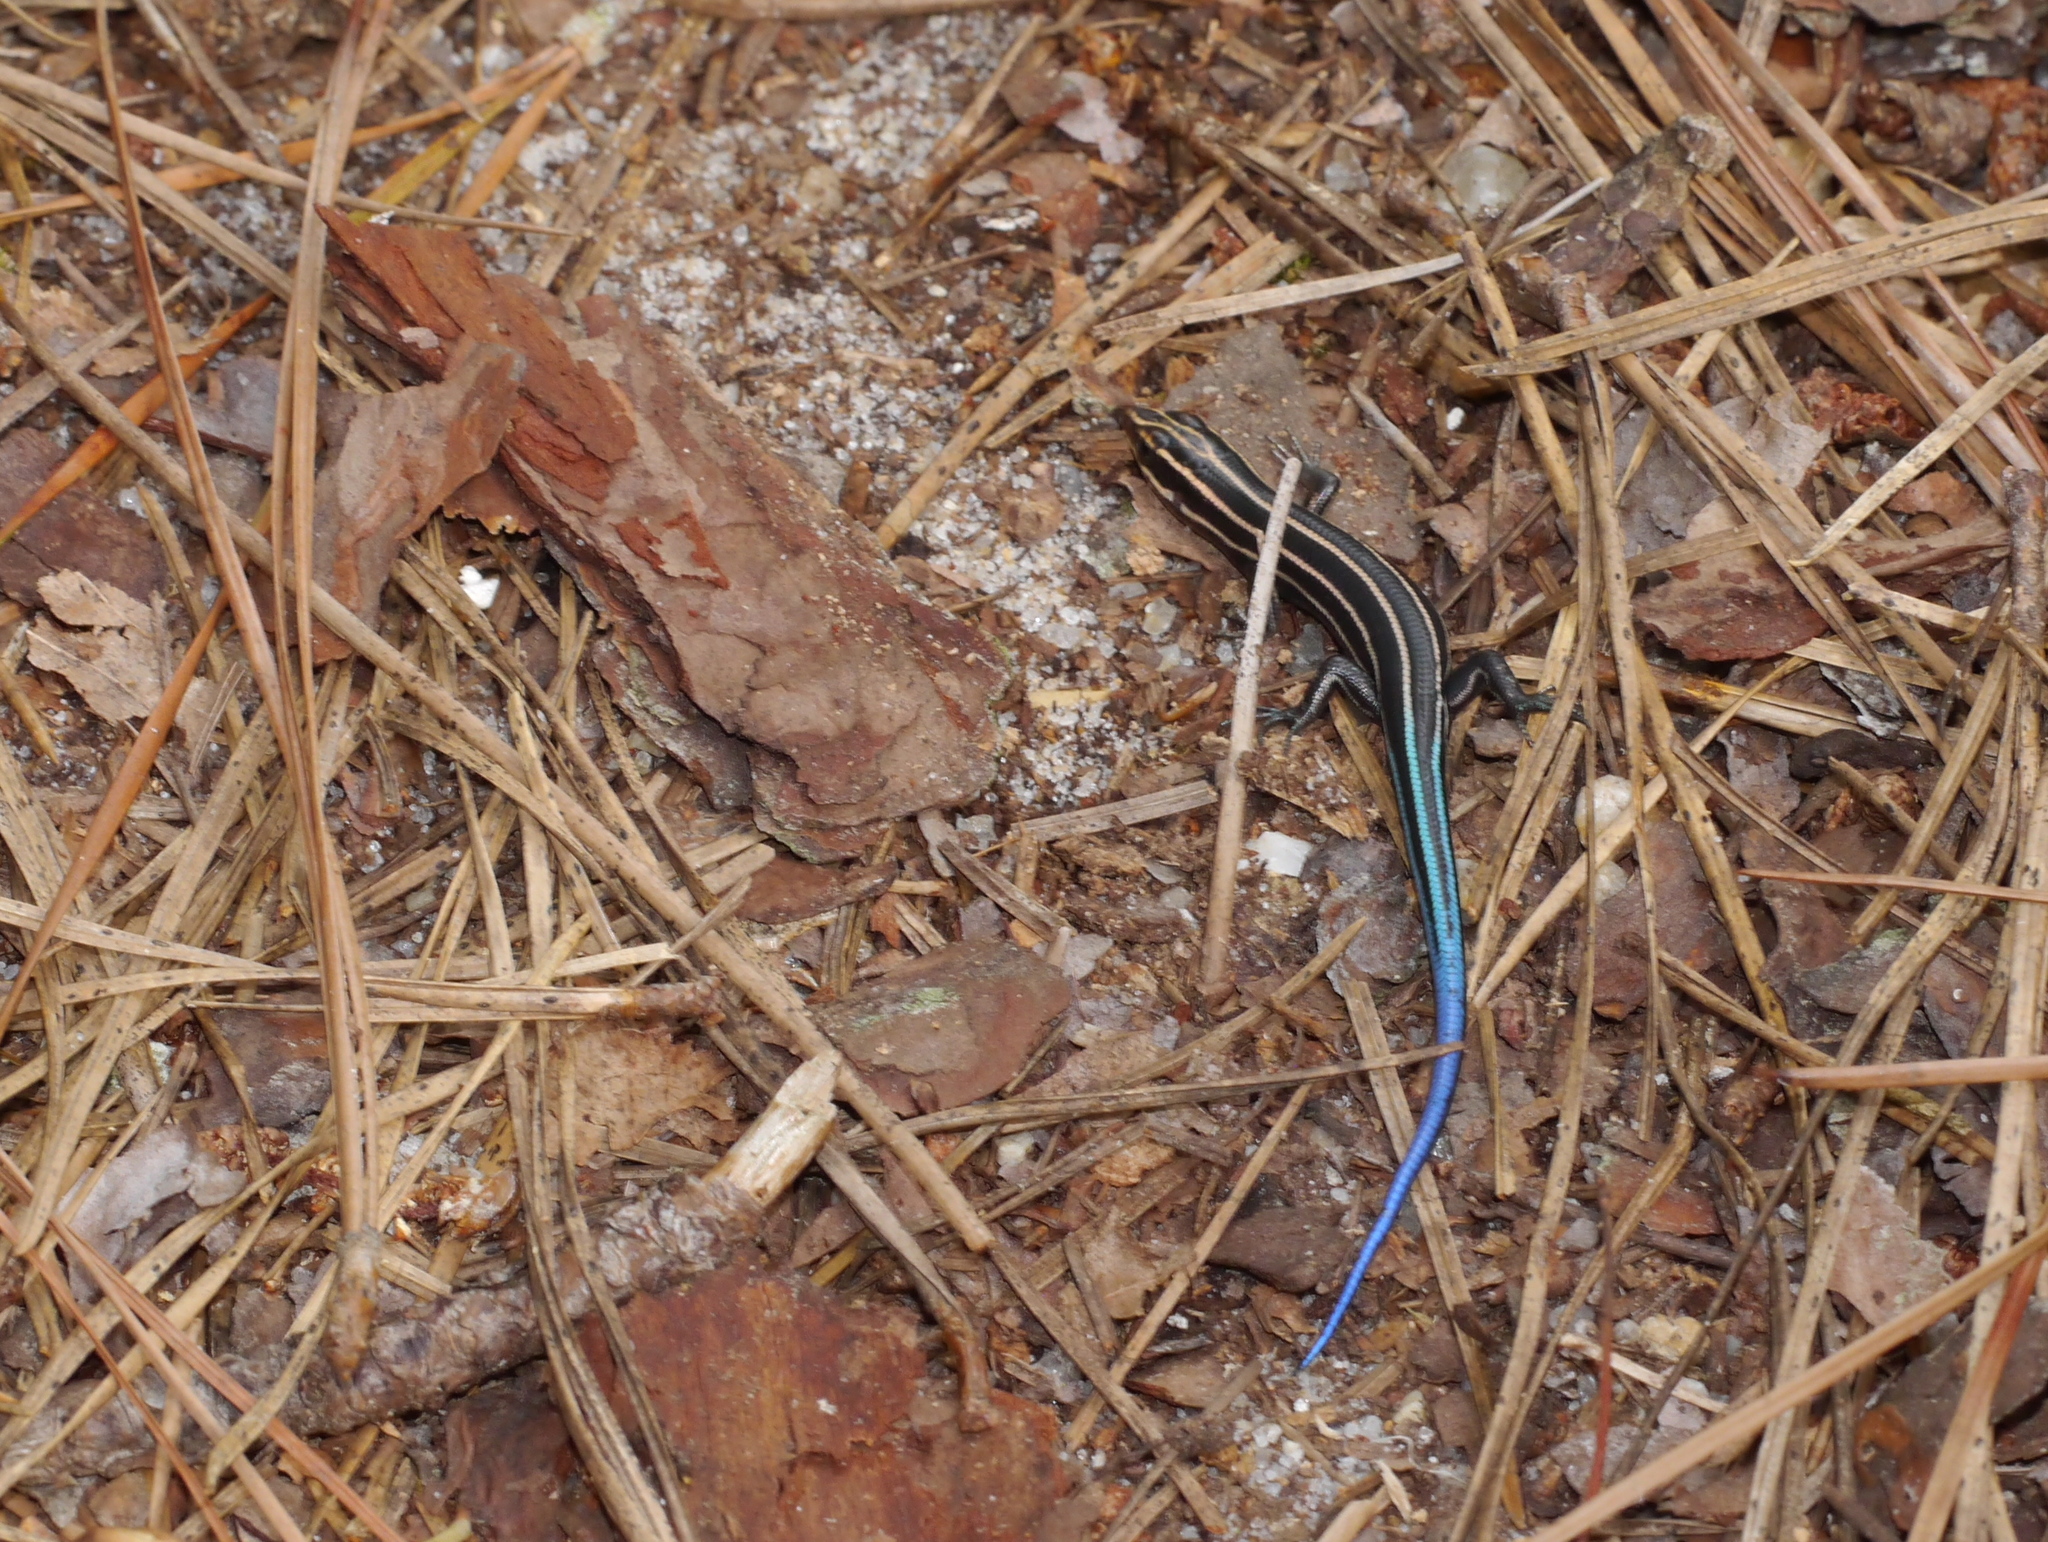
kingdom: Animalia
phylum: Chordata
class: Squamata
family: Scincidae
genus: Plestiodon
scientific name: Plestiodon fasciatus
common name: Five-lined skink
